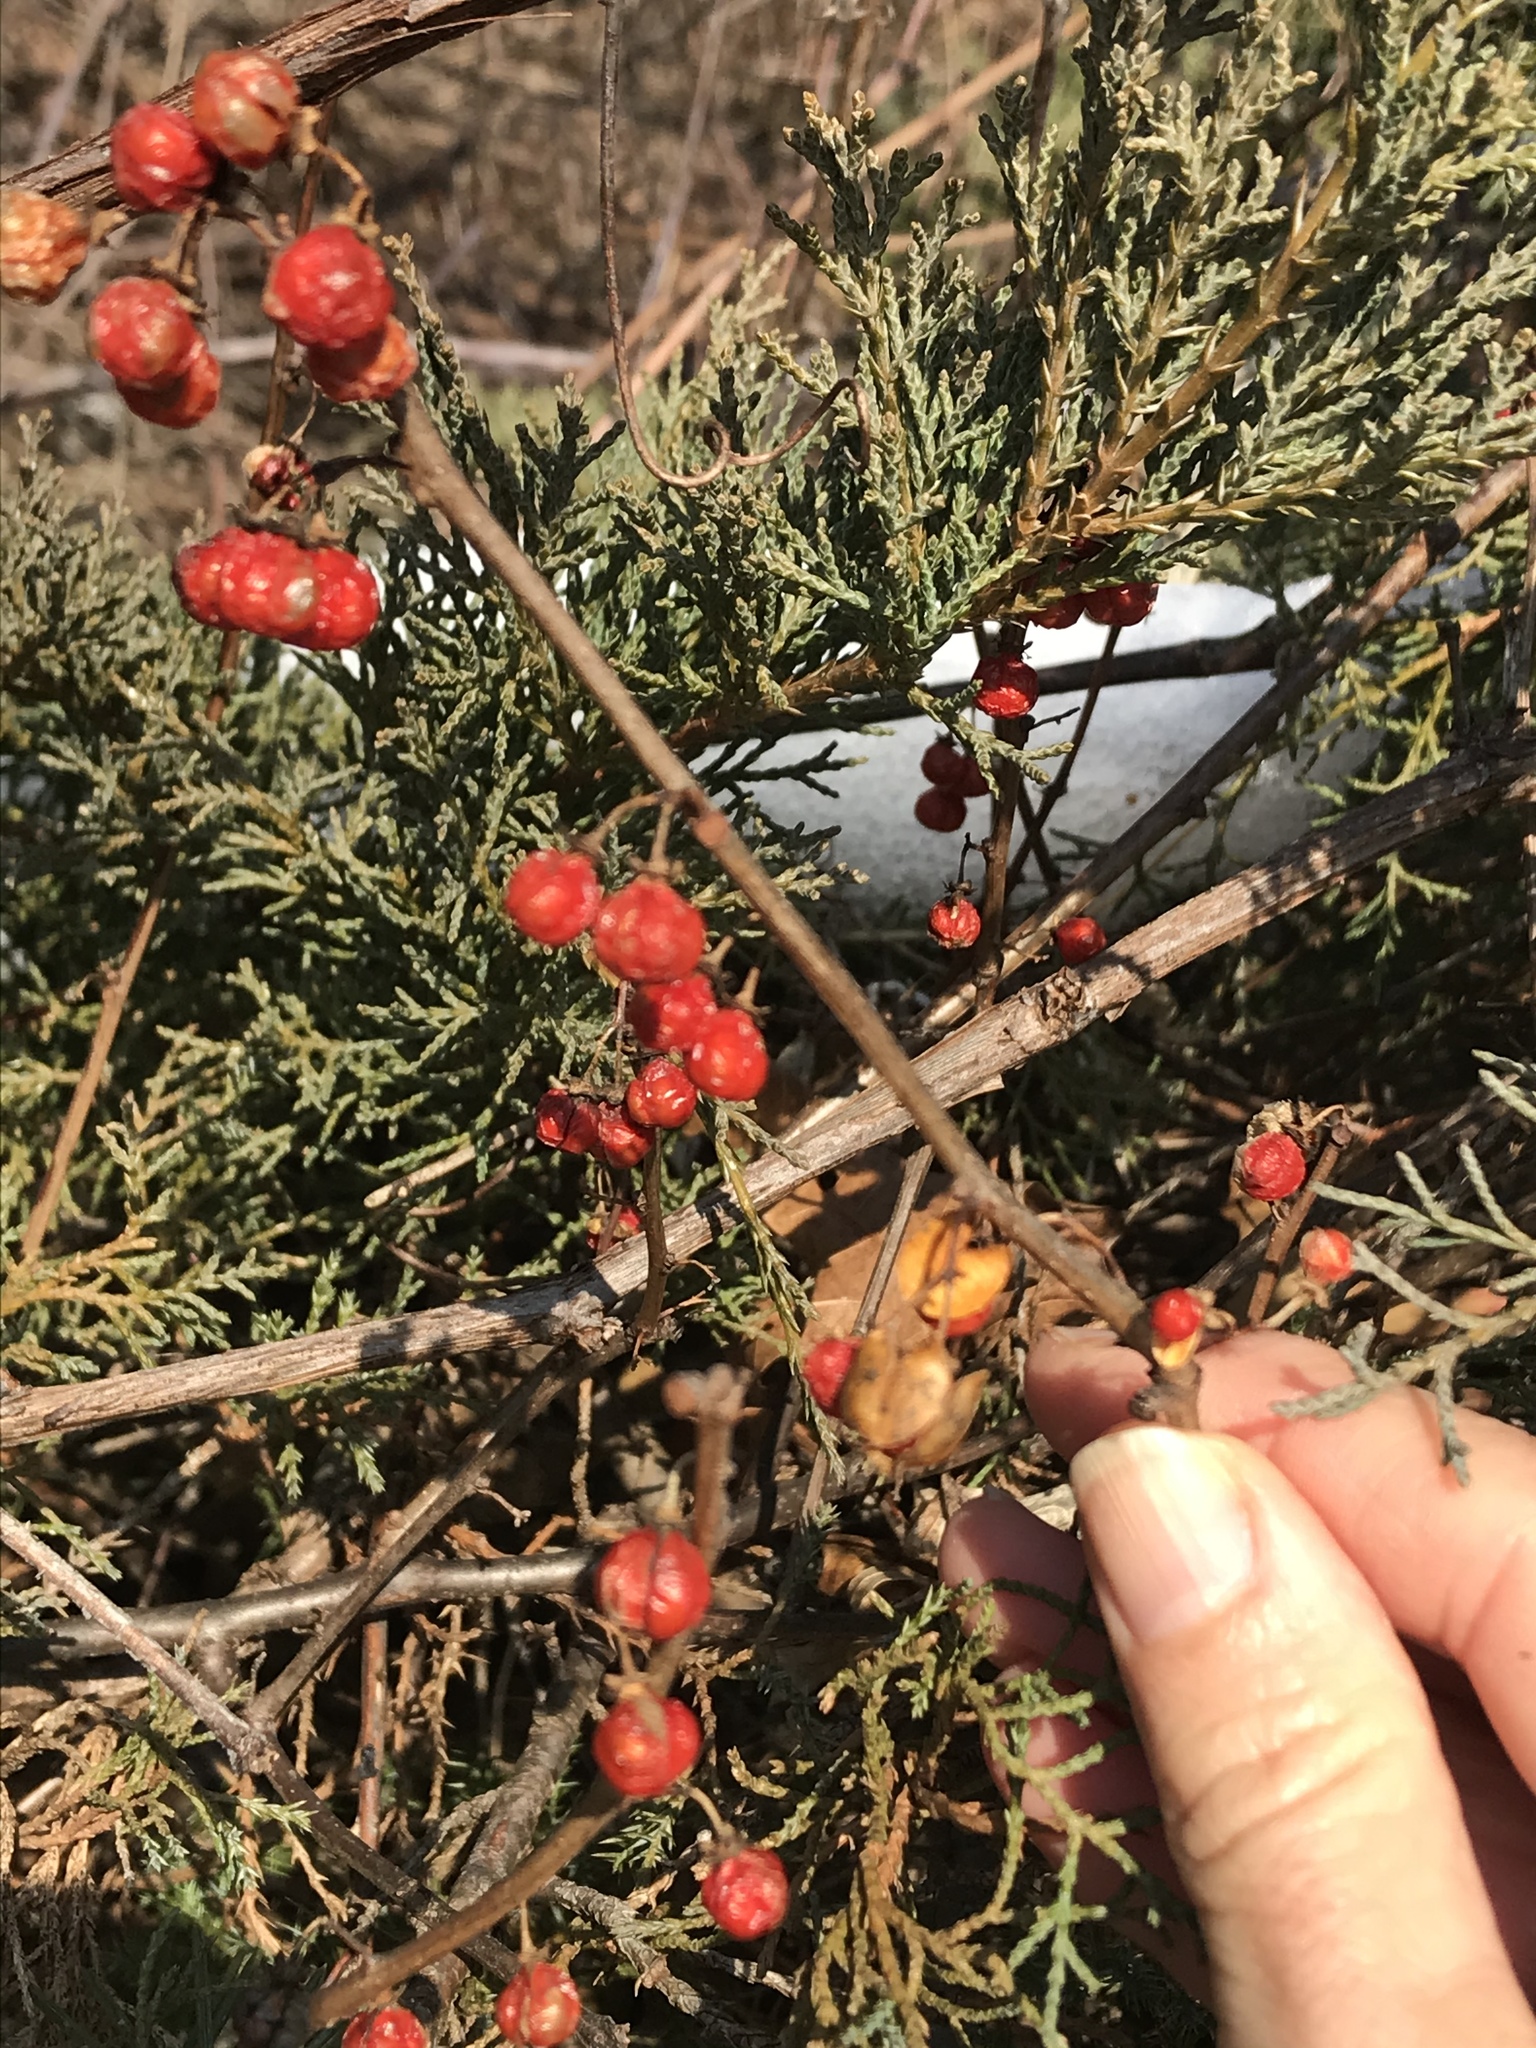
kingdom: Plantae
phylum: Tracheophyta
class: Magnoliopsida
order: Celastrales
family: Celastraceae
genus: Celastrus
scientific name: Celastrus orbiculatus
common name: Oriental bittersweet
